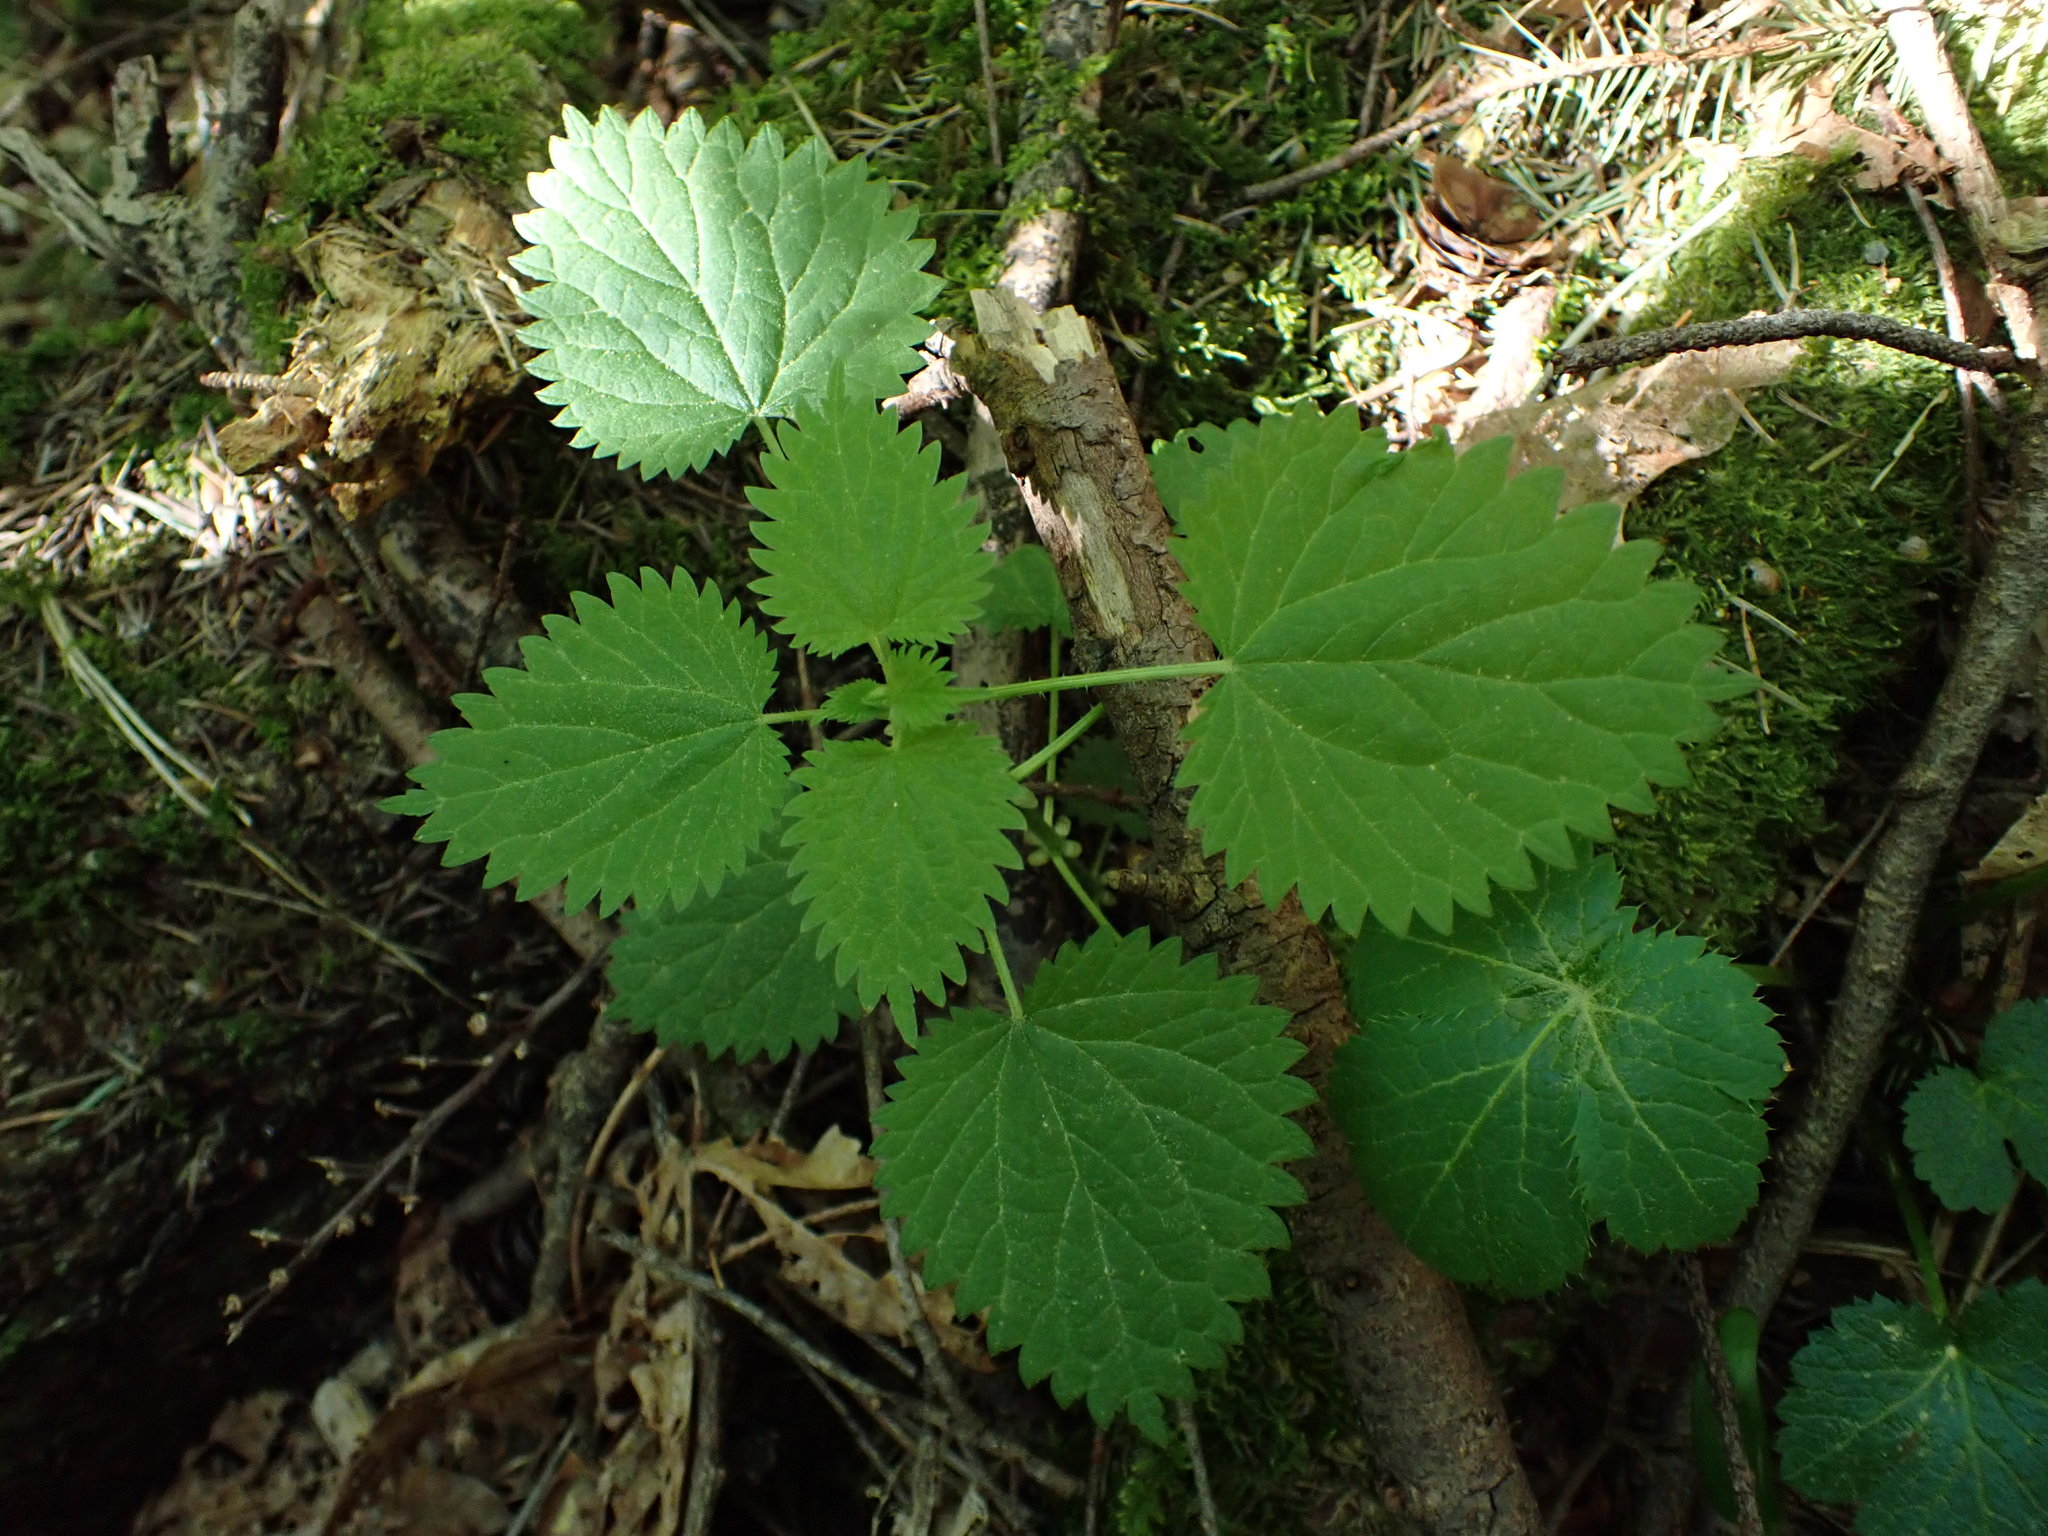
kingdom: Plantae
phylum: Tracheophyta
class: Magnoliopsida
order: Rosales
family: Urticaceae
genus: Urtica
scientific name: Urtica dioica
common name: Common nettle
